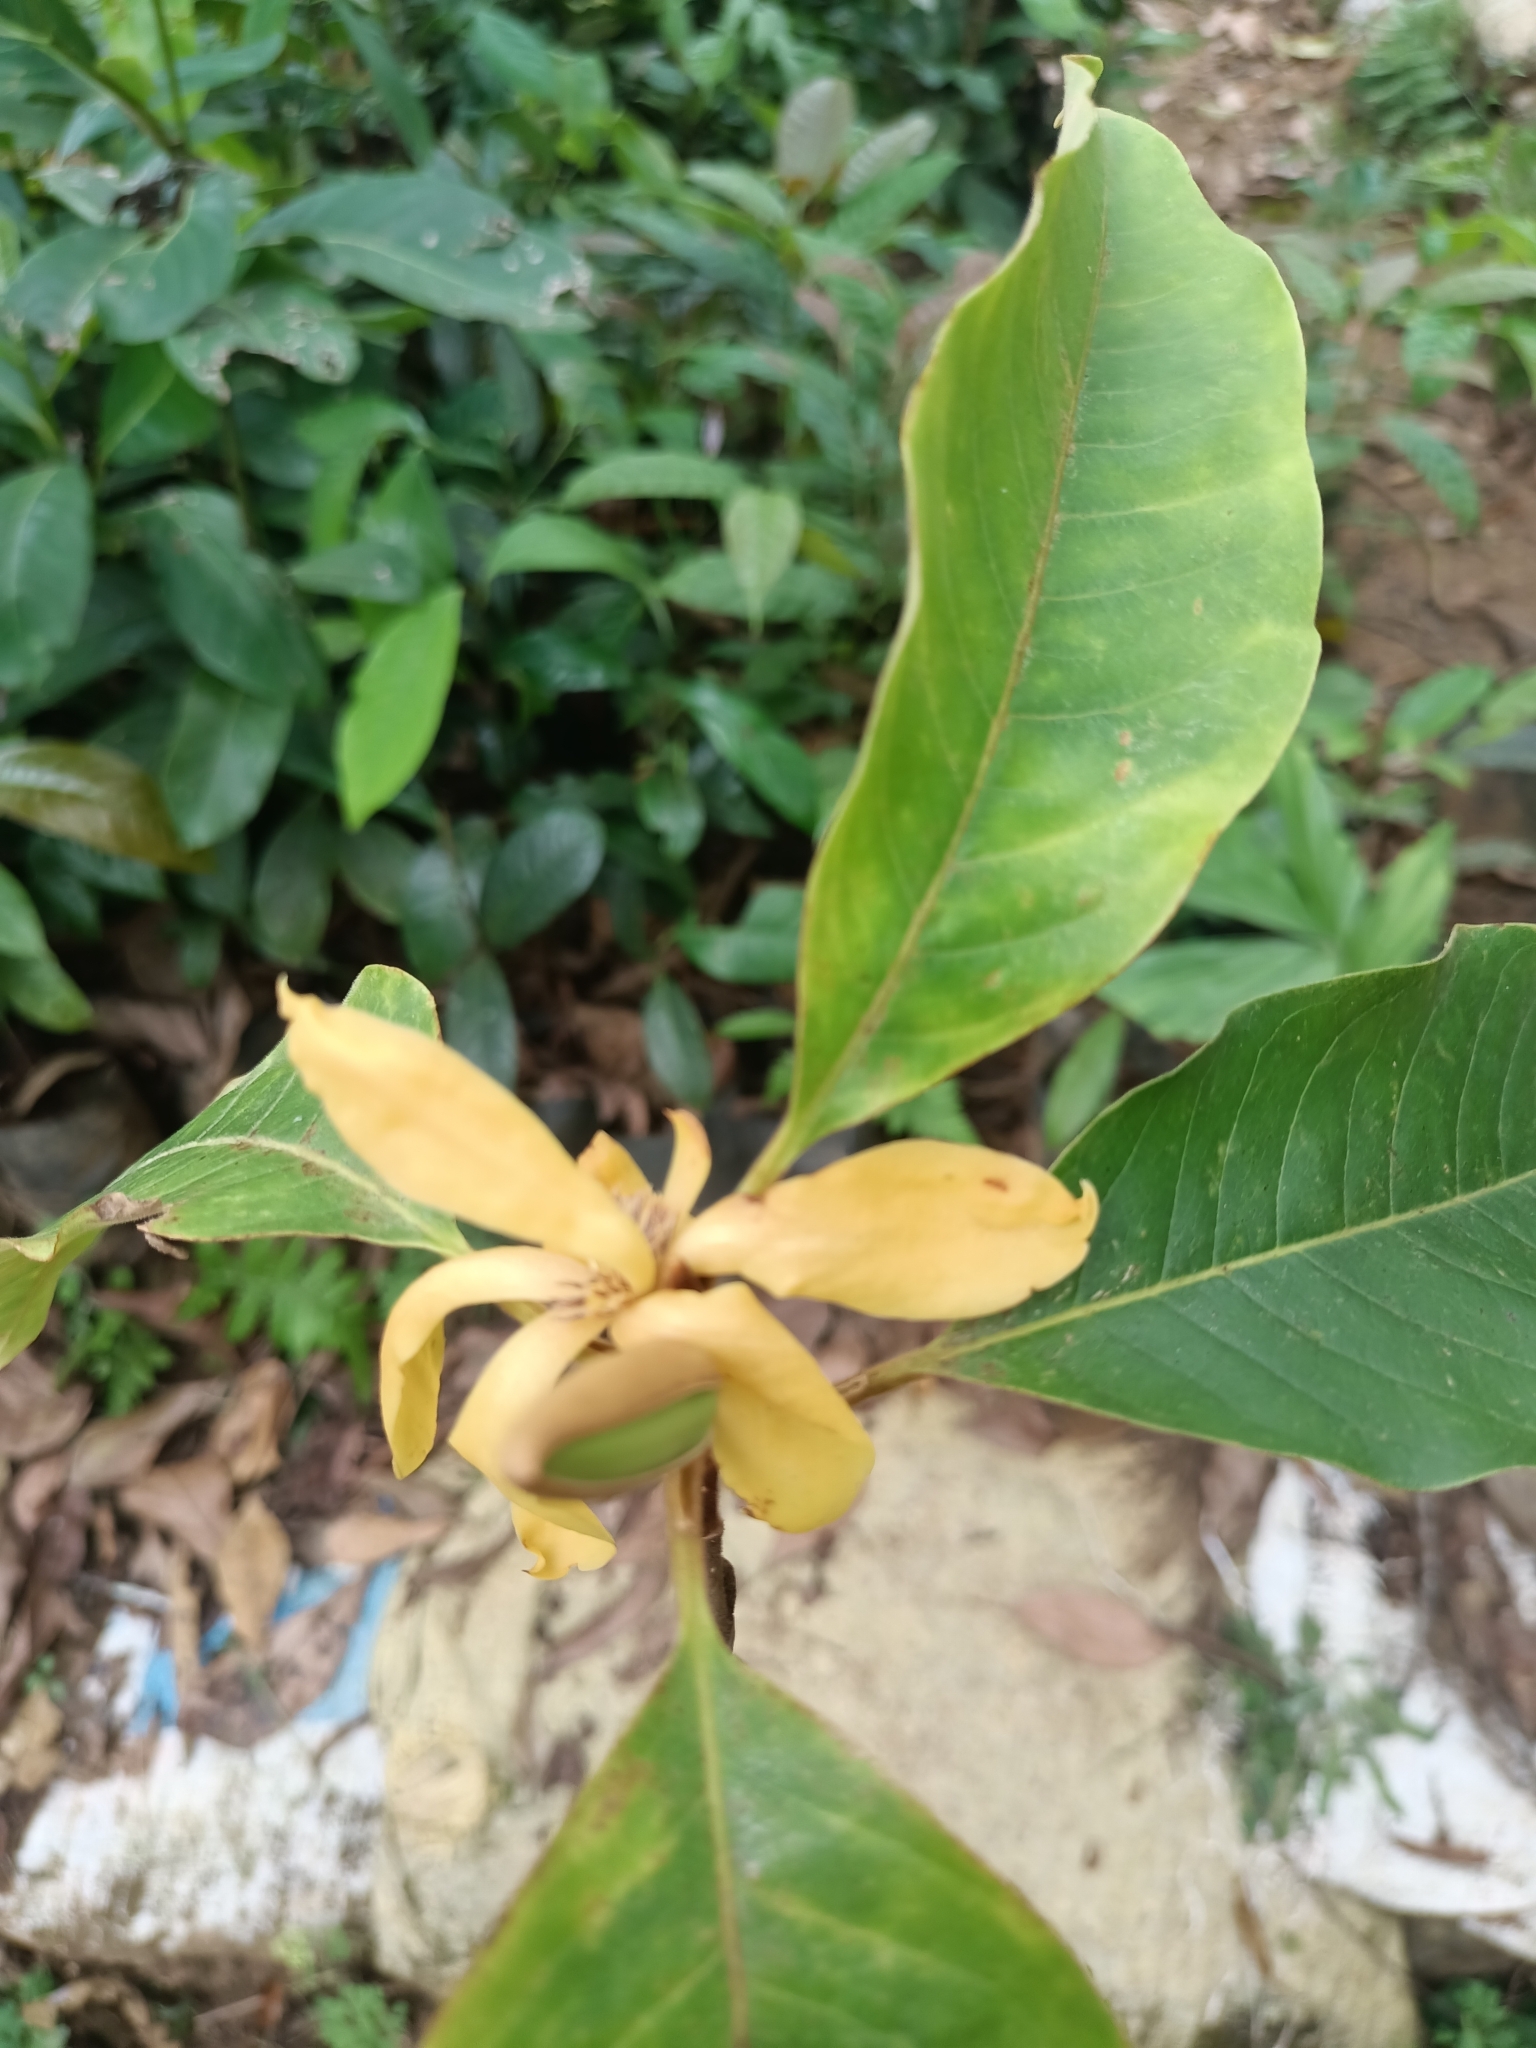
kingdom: Plantae
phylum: Tracheophyta
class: Magnoliopsida
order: Magnoliales
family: Magnoliaceae
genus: Magnolia
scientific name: Magnolia champaca
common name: Champak
